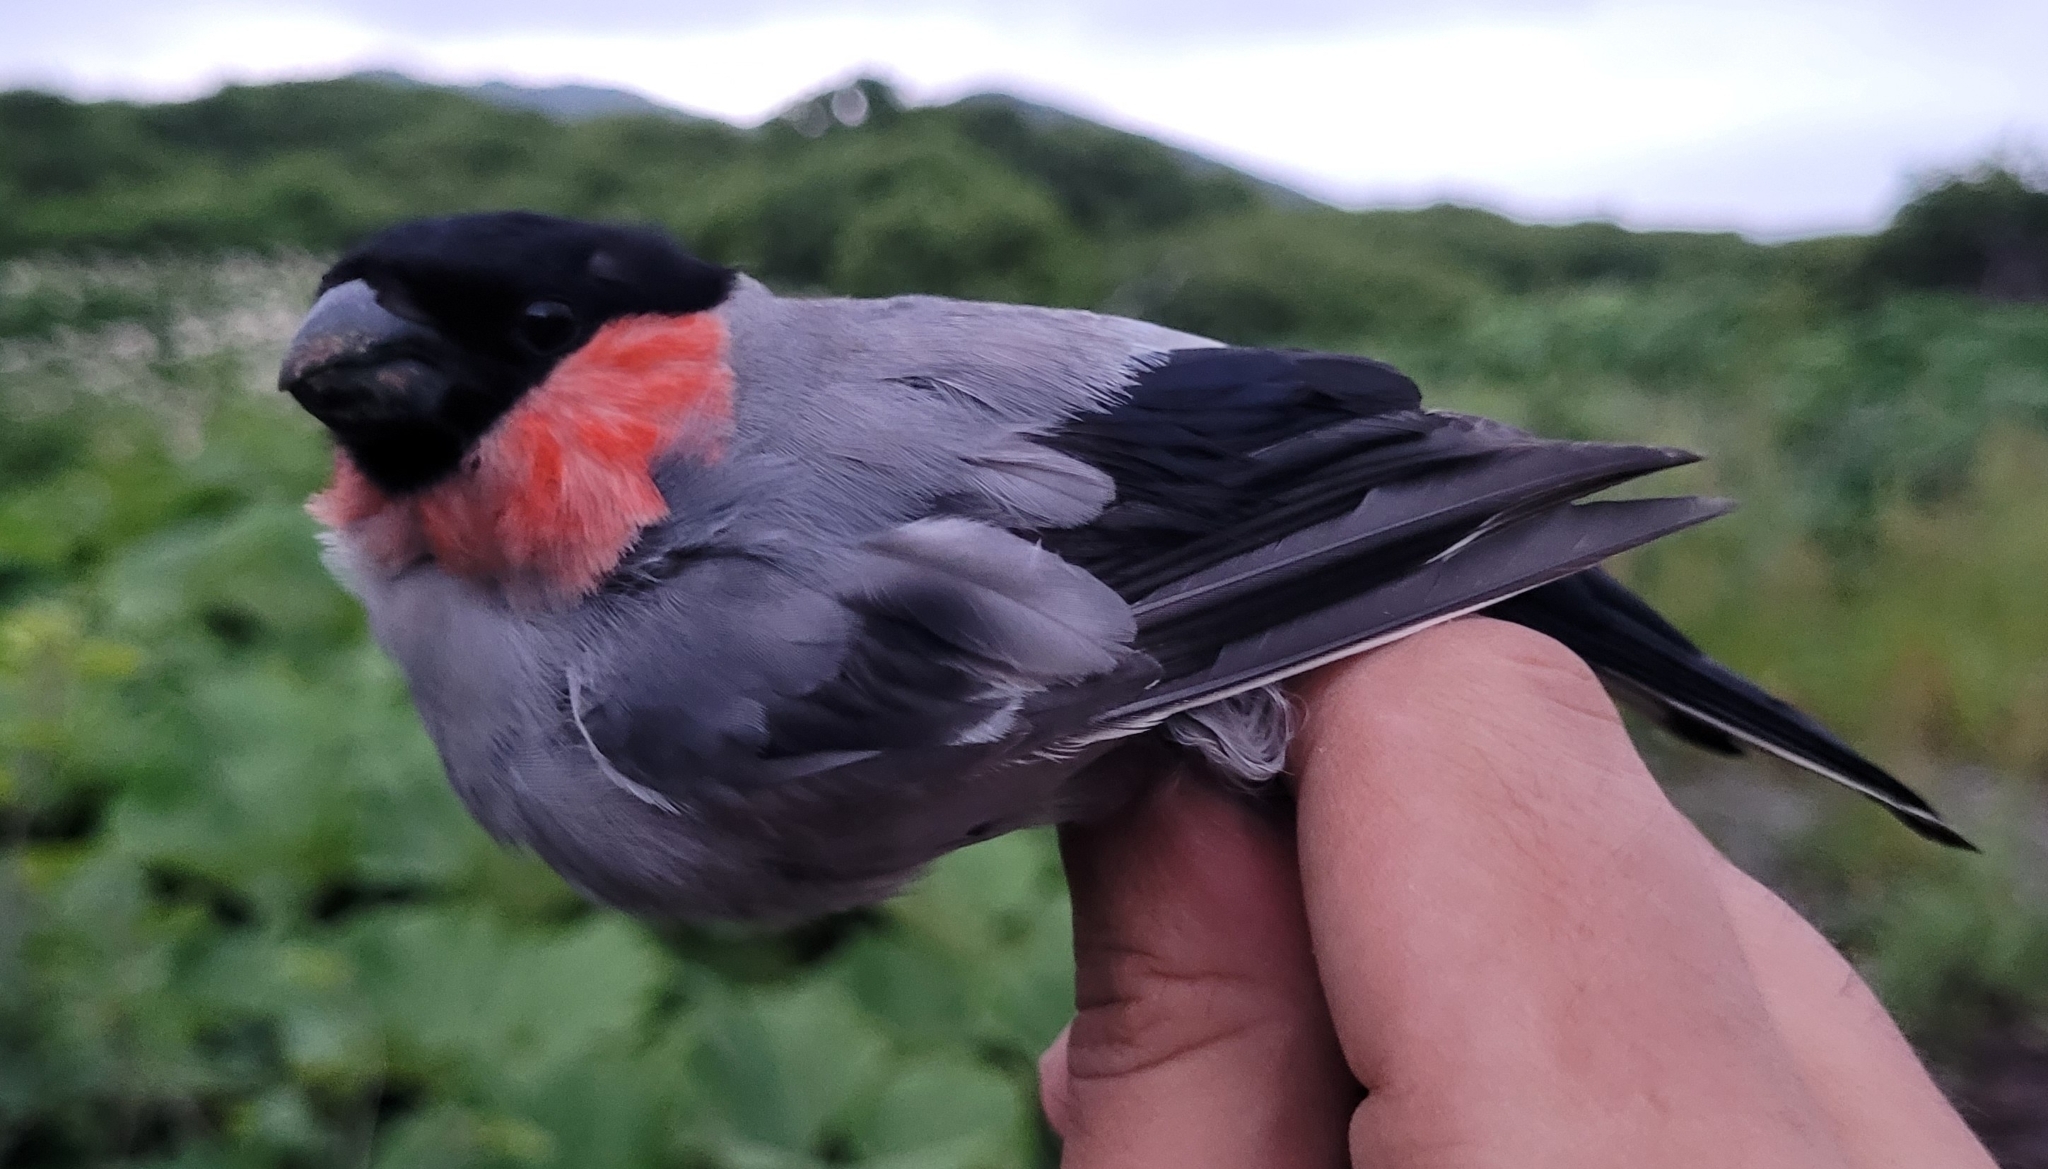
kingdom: Animalia
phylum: Chordata
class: Aves
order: Passeriformes
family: Fringillidae
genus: Pyrrhula
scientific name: Pyrrhula pyrrhula
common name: Eurasian bullfinch
